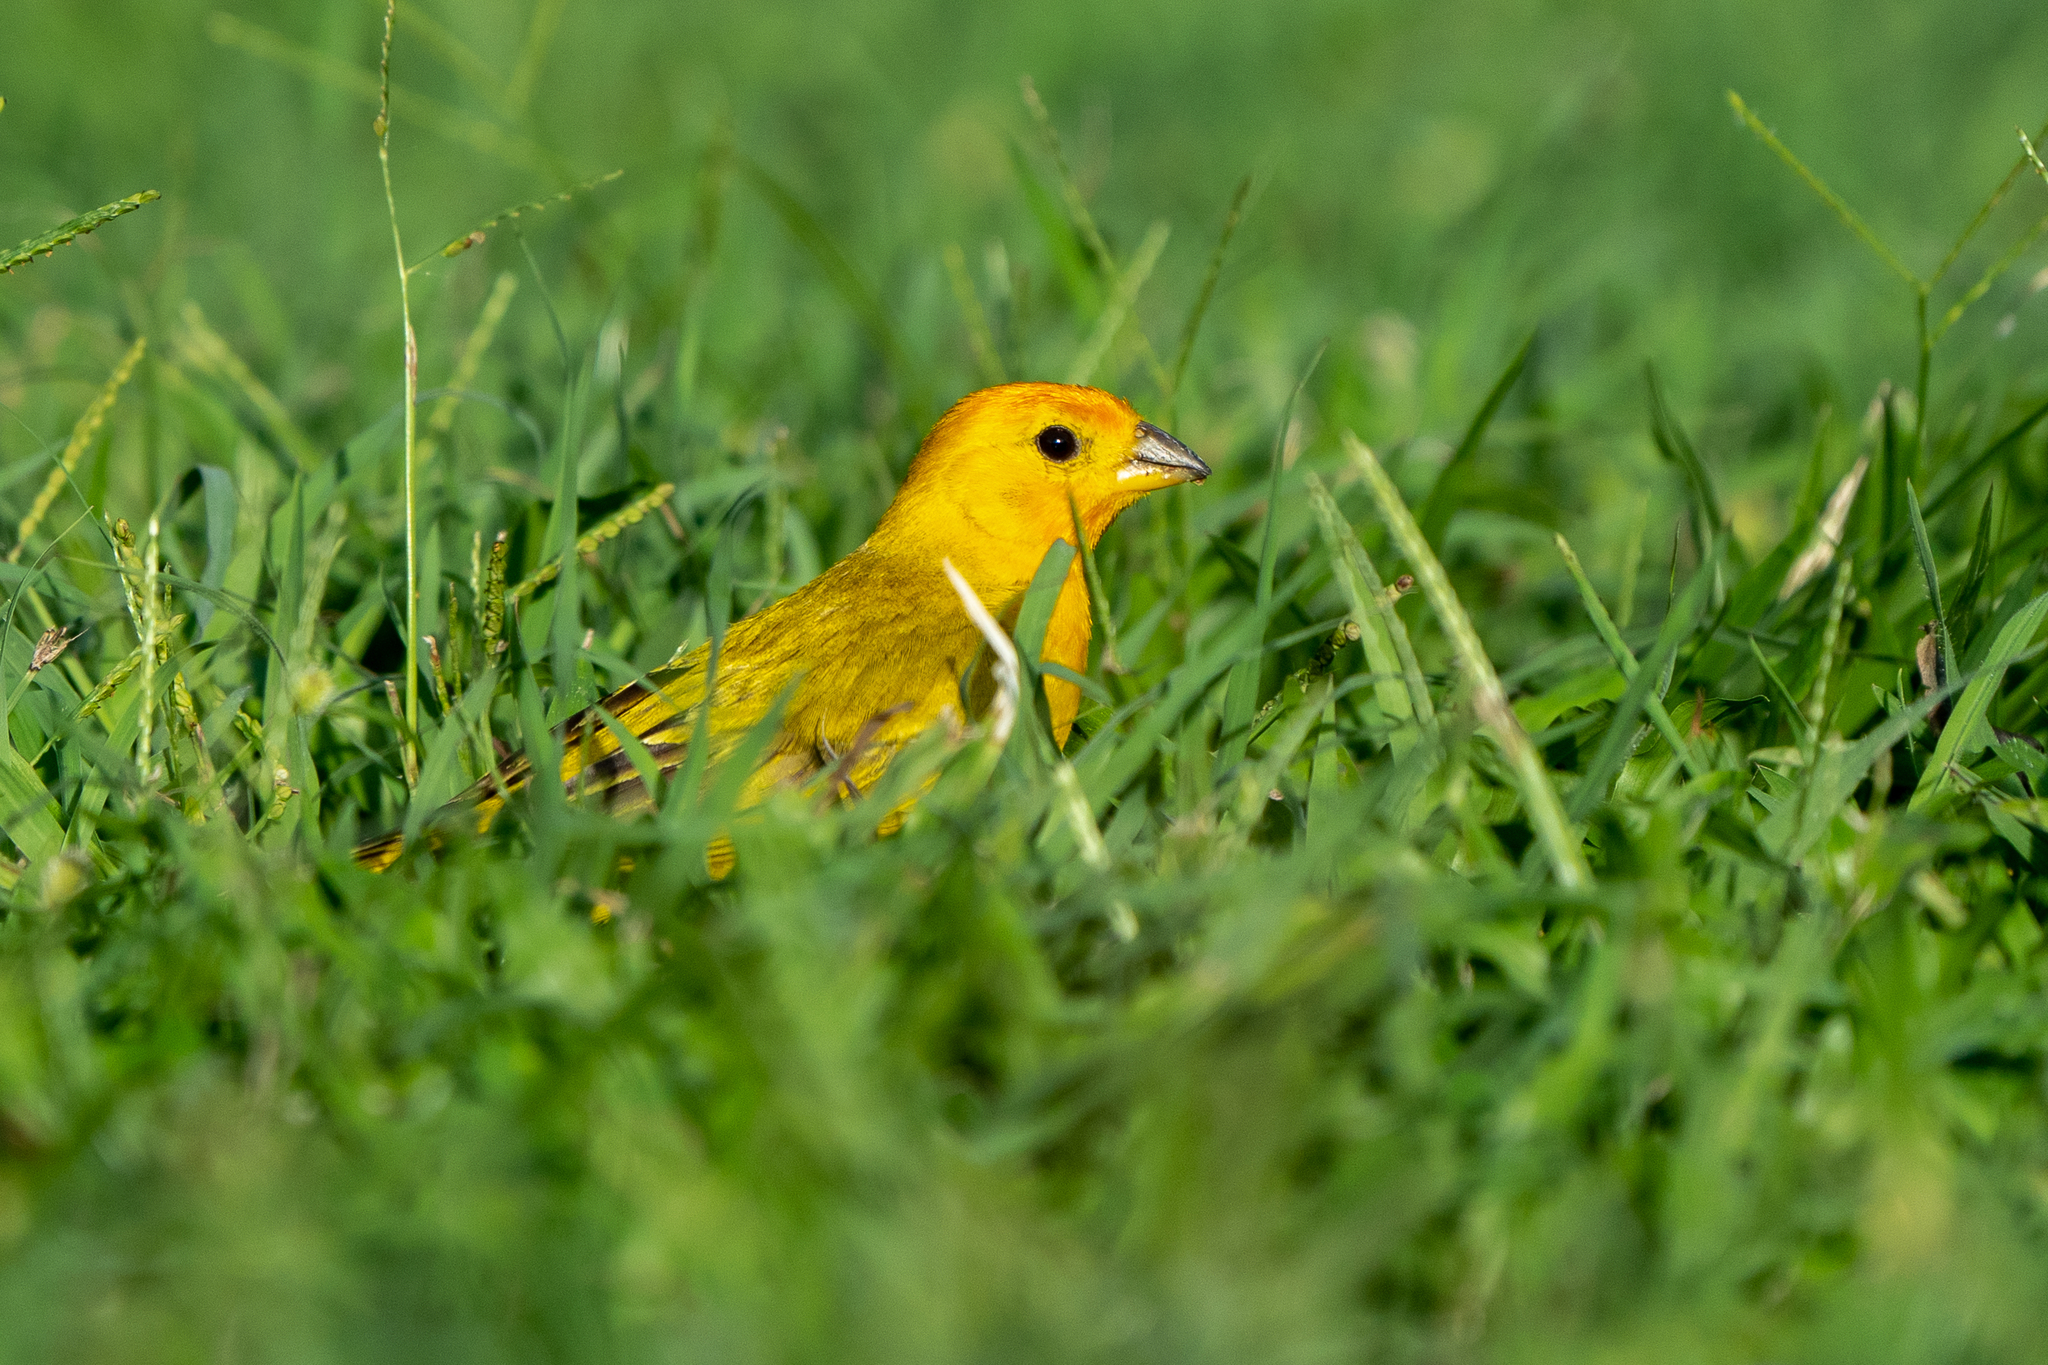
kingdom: Animalia
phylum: Chordata
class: Aves
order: Passeriformes
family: Thraupidae
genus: Sicalis
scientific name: Sicalis flaveola
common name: Saffron finch
